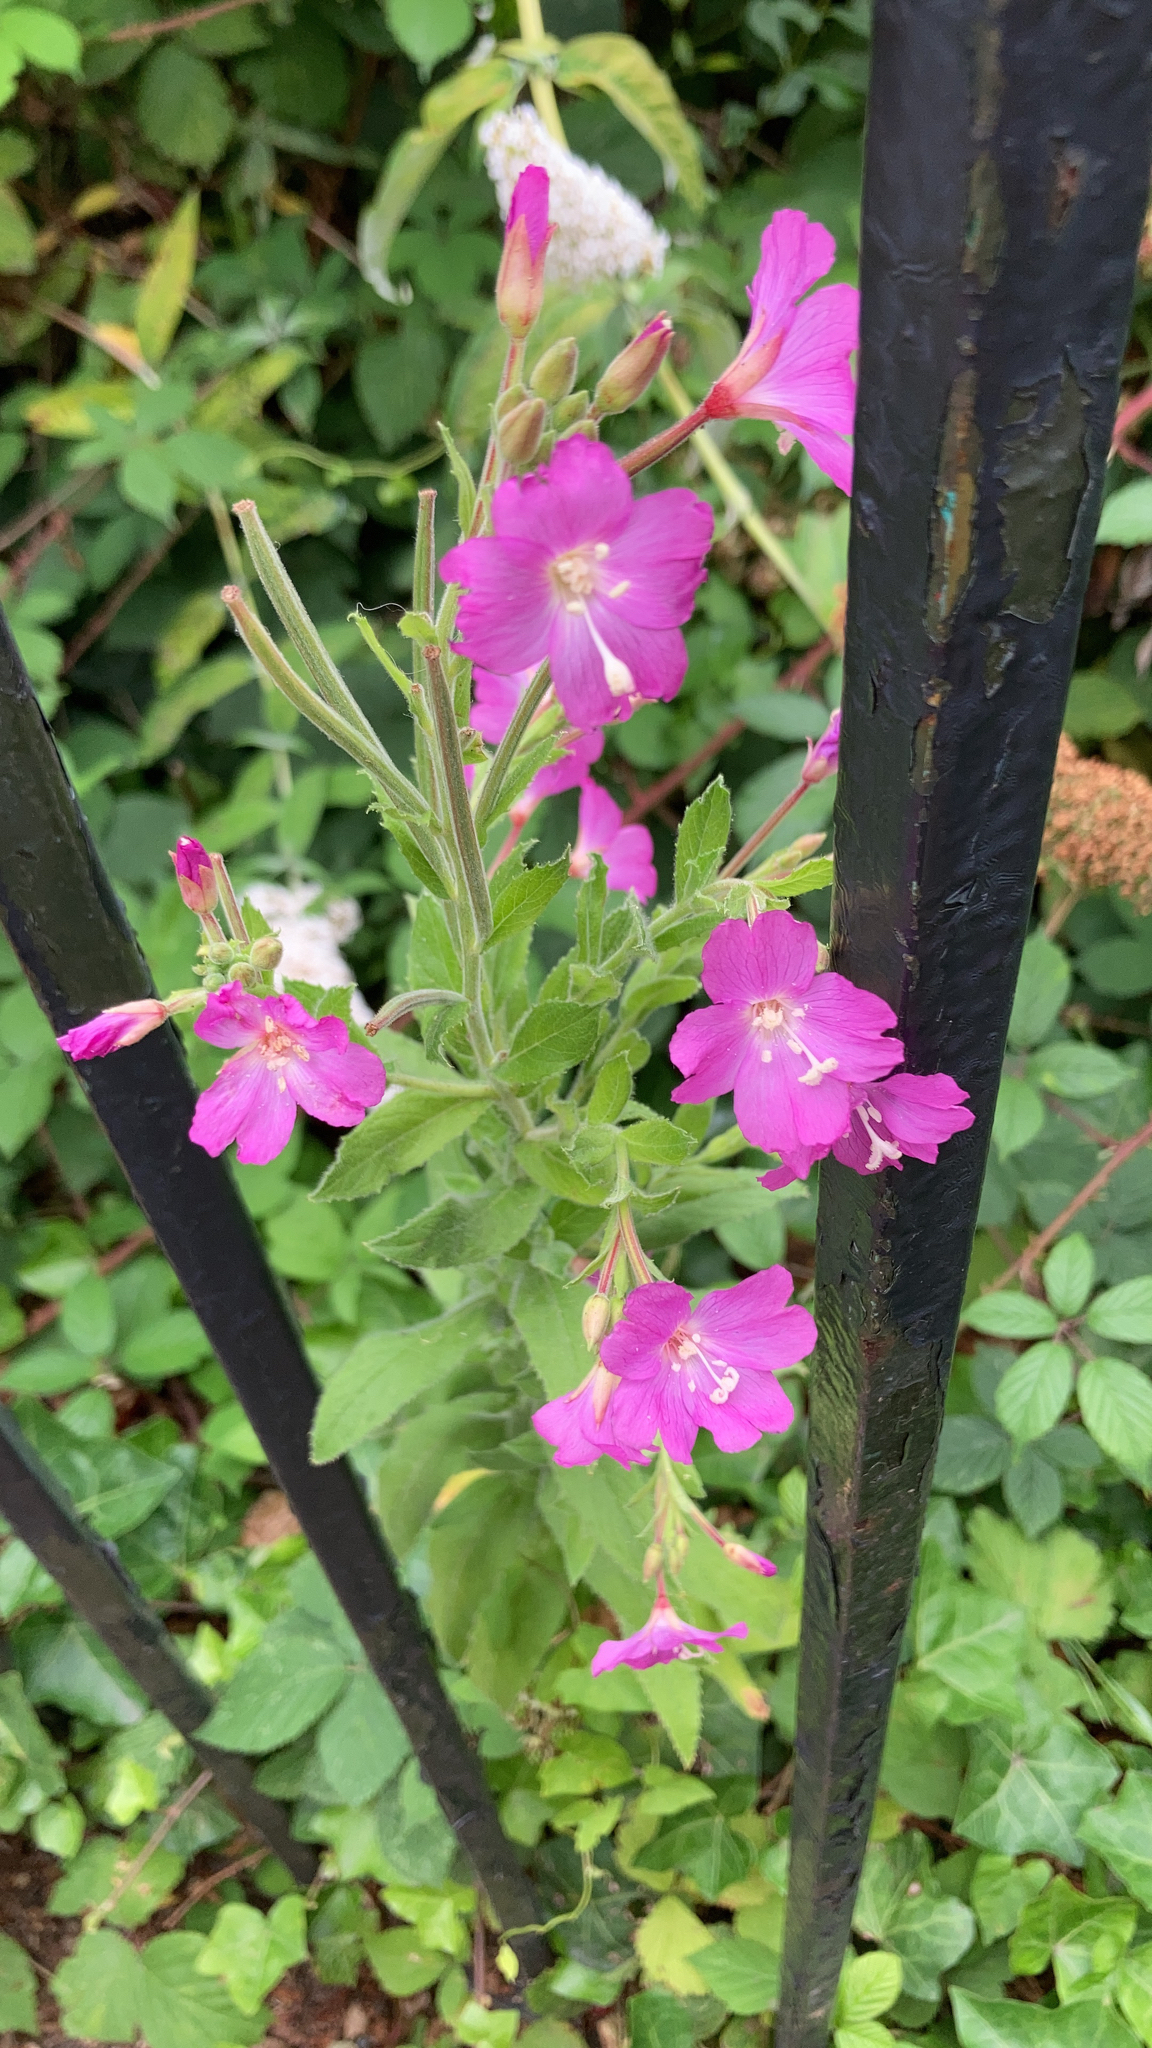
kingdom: Plantae
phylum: Tracheophyta
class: Magnoliopsida
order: Myrtales
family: Onagraceae
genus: Epilobium
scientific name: Epilobium hirsutum
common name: Great willowherb
